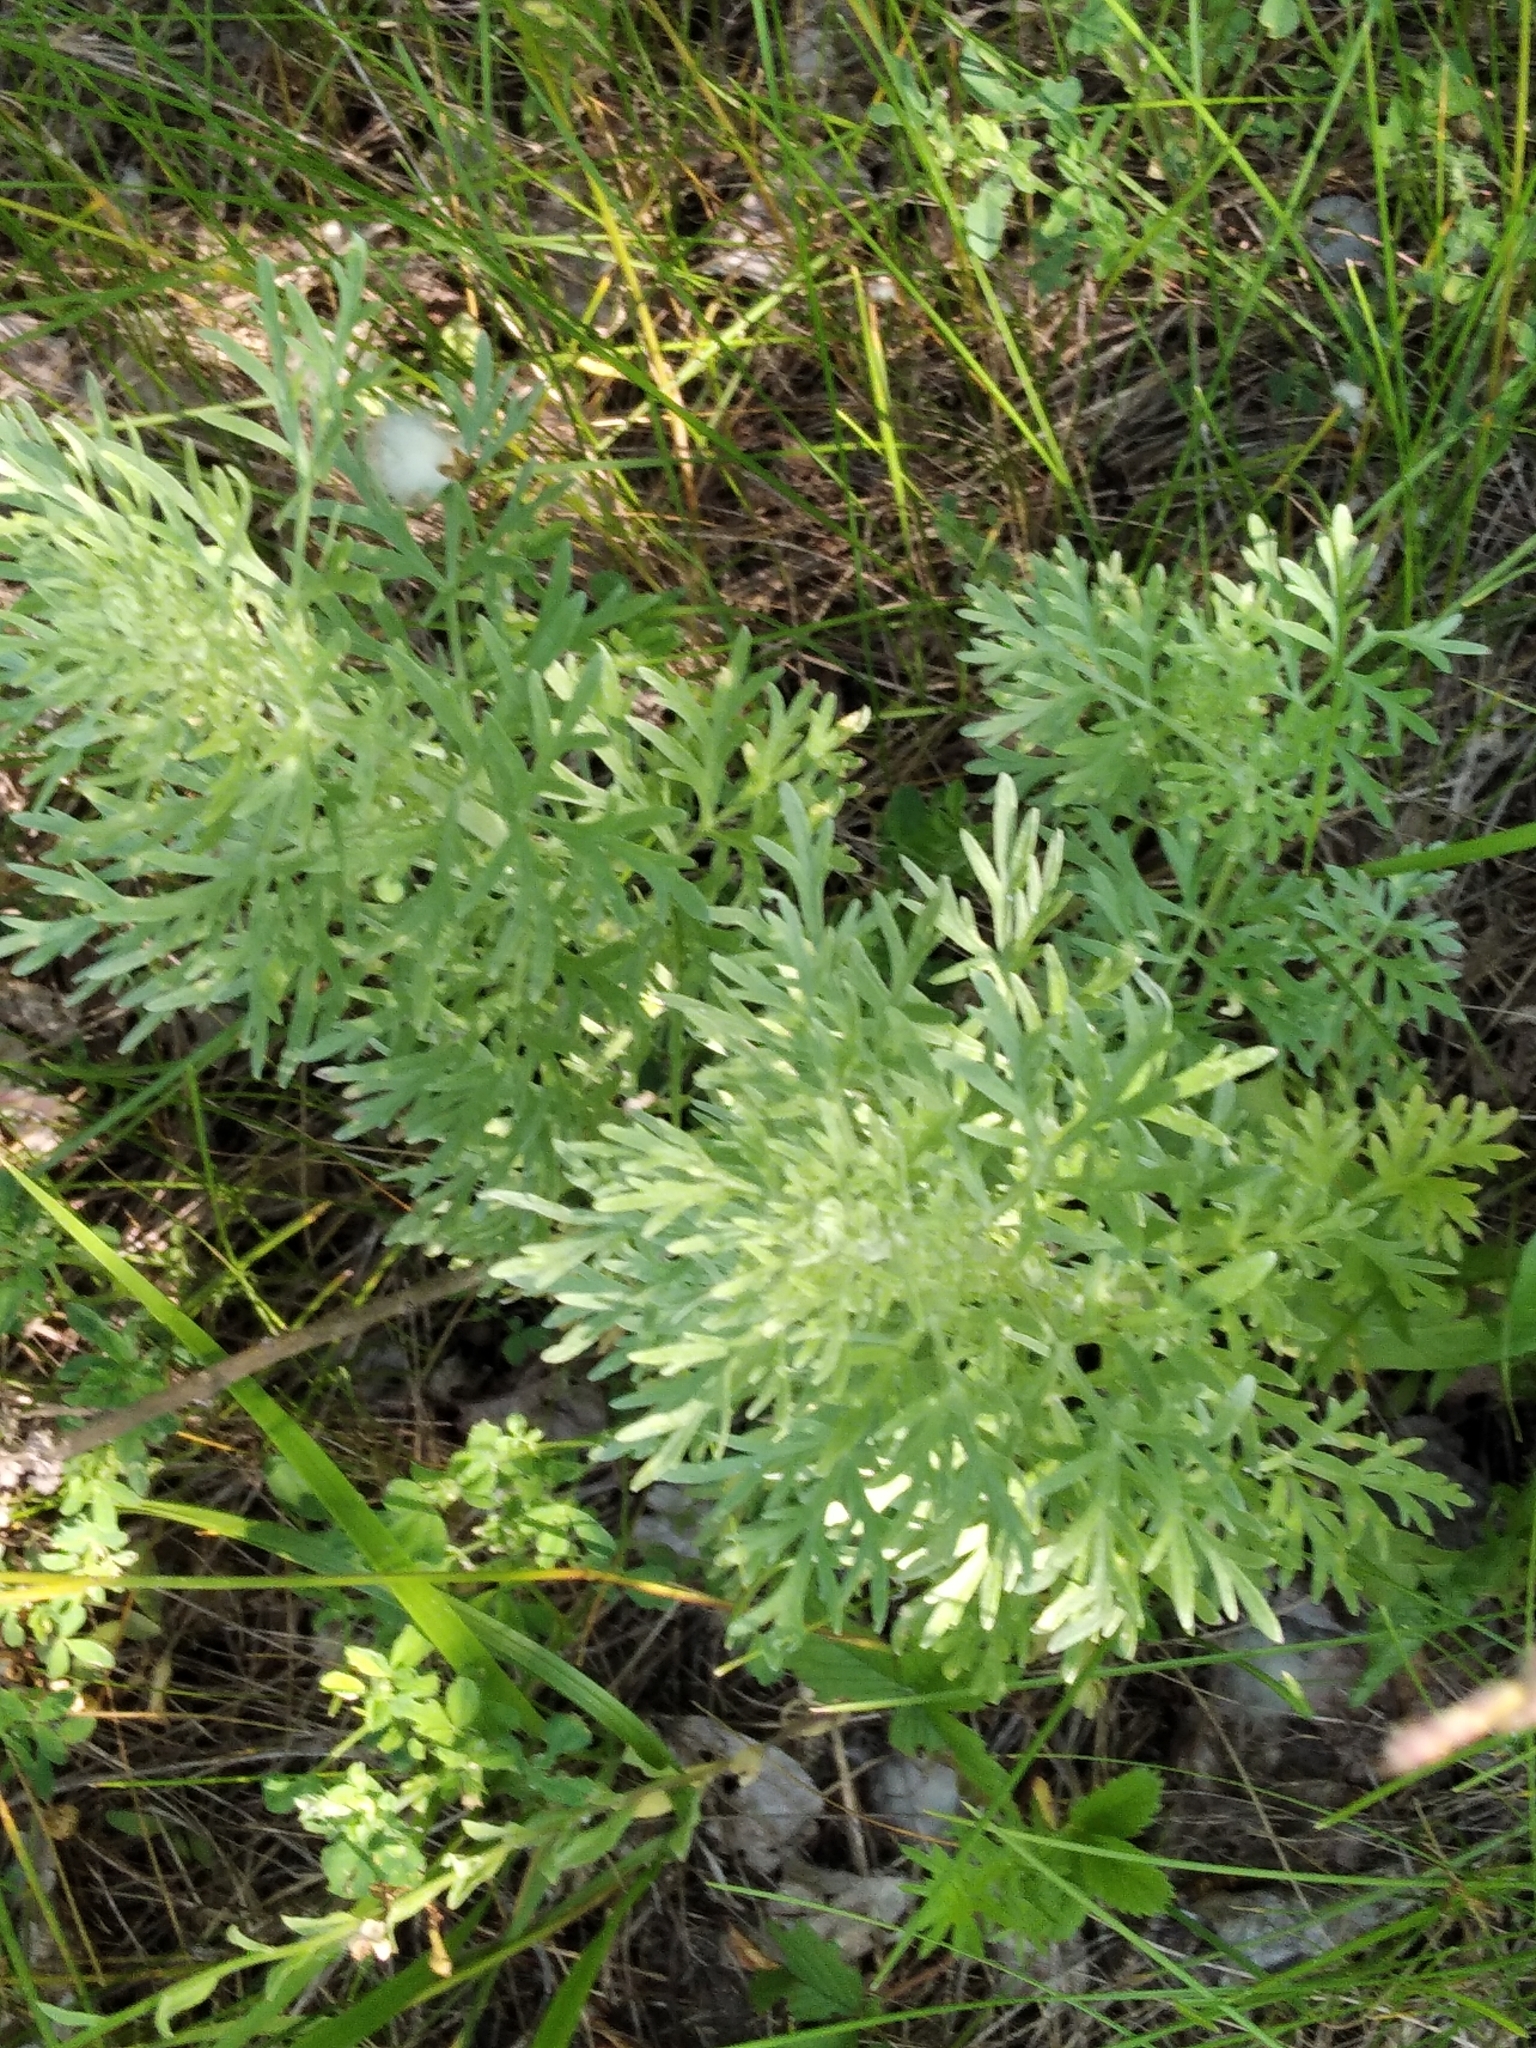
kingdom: Plantae
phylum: Tracheophyta
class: Magnoliopsida
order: Asterales
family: Asteraceae
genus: Artemisia
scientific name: Artemisia absinthium
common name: Wormwood
